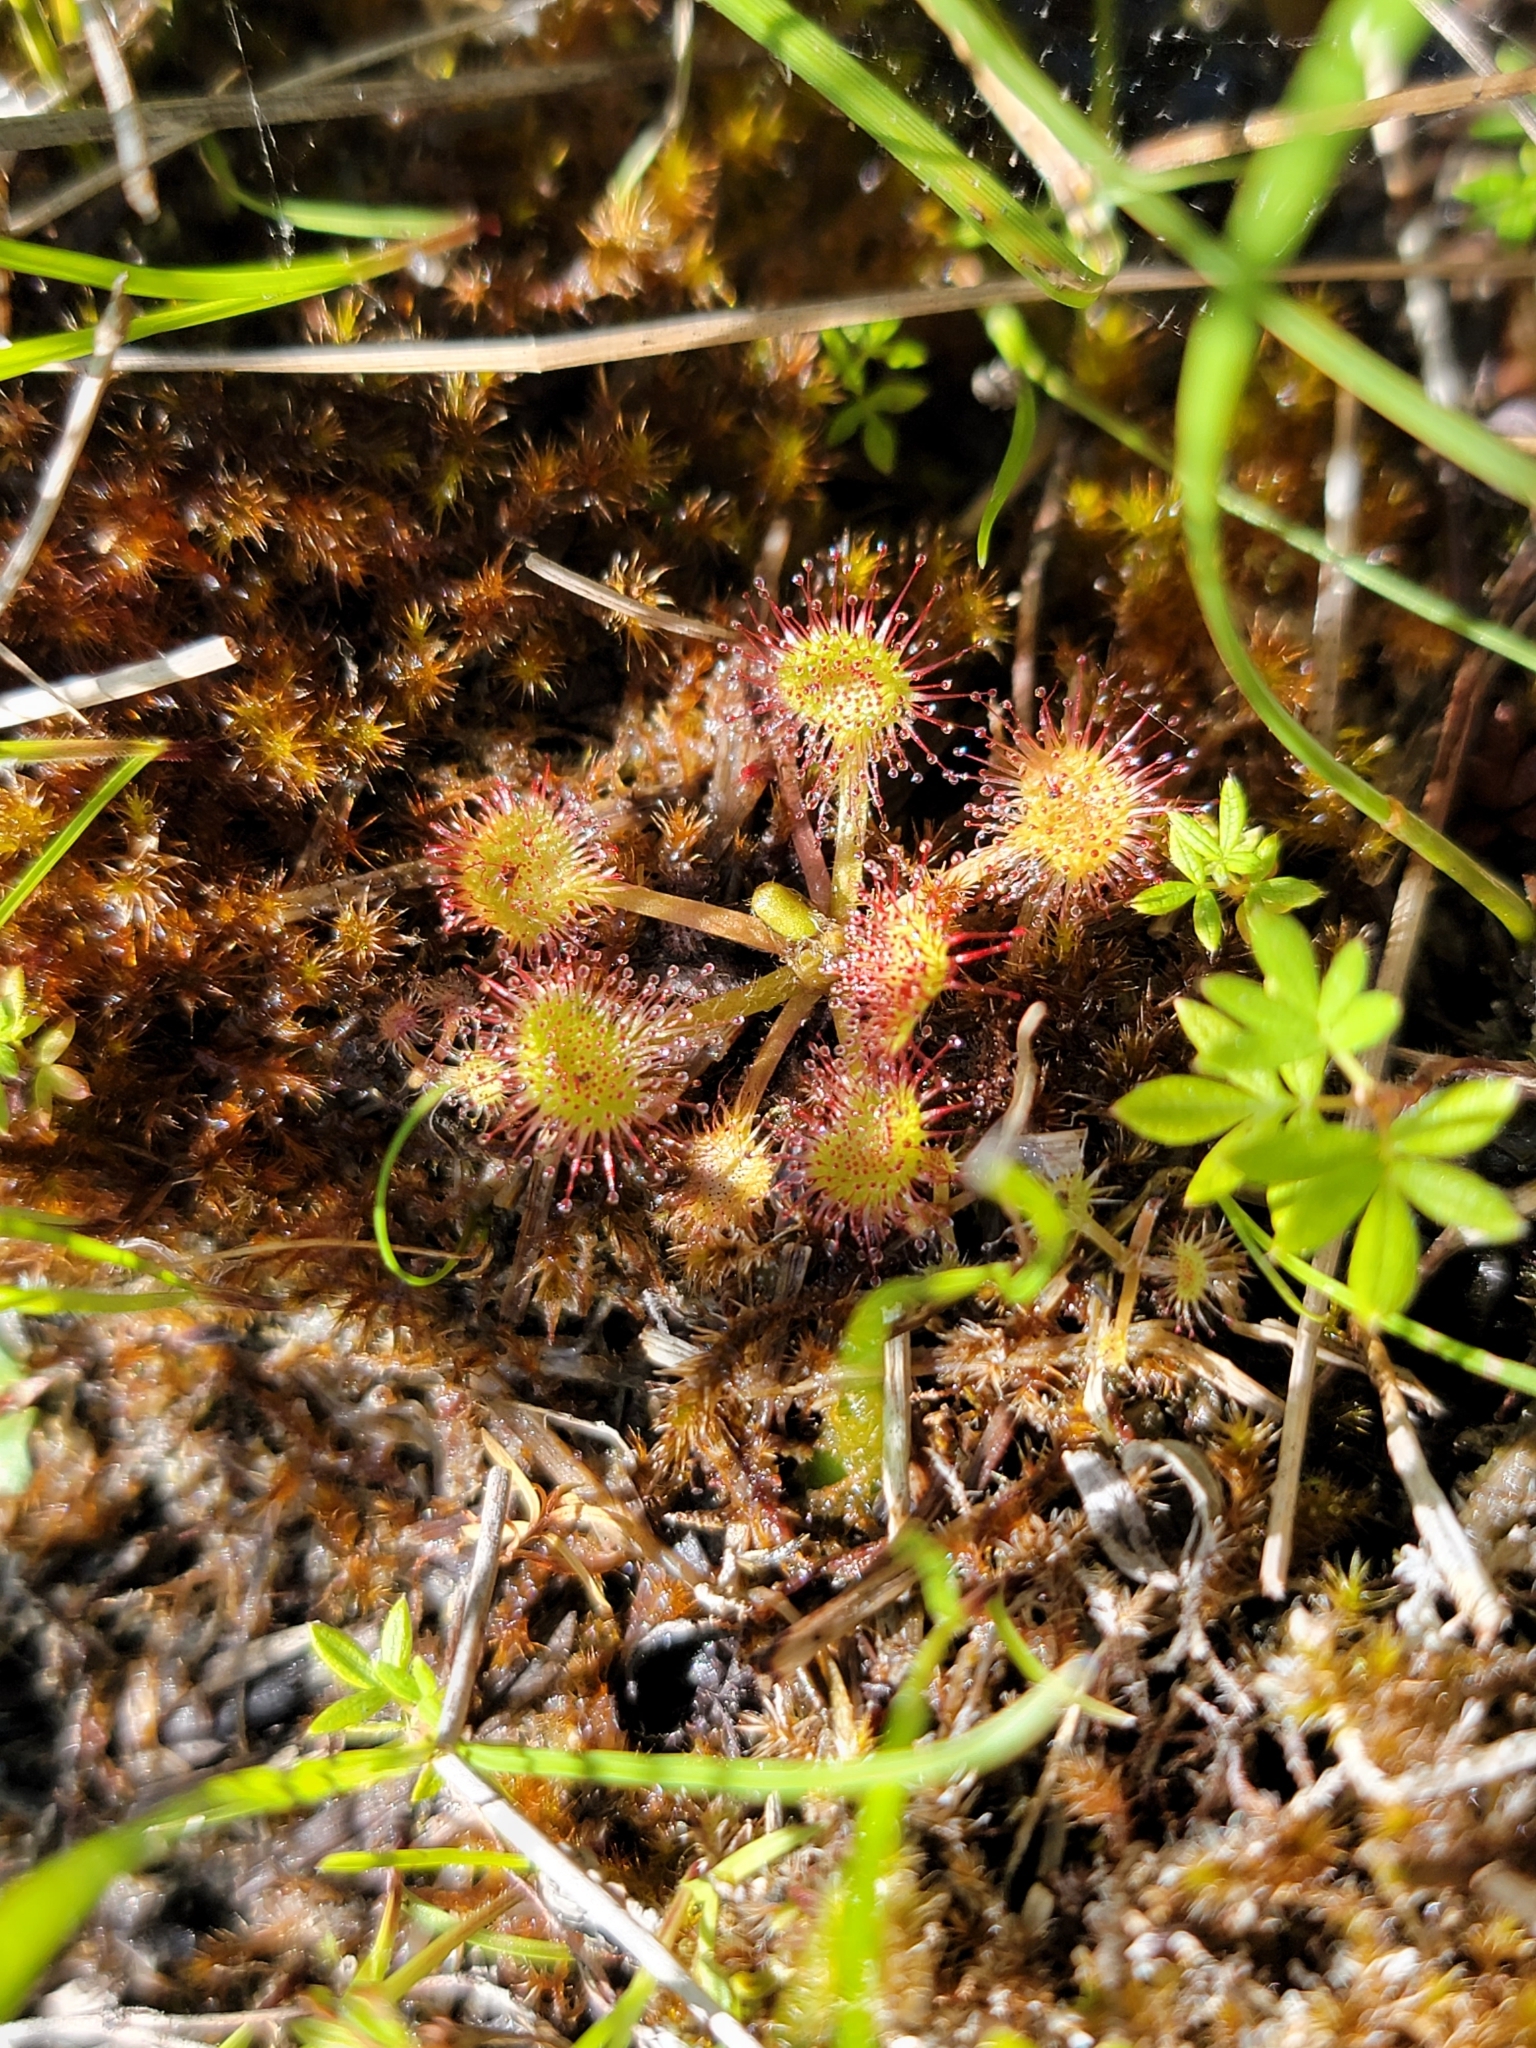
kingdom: Plantae
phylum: Tracheophyta
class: Magnoliopsida
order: Caryophyllales
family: Droseraceae
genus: Drosera
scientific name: Drosera rotundifolia
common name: Round-leaved sundew
